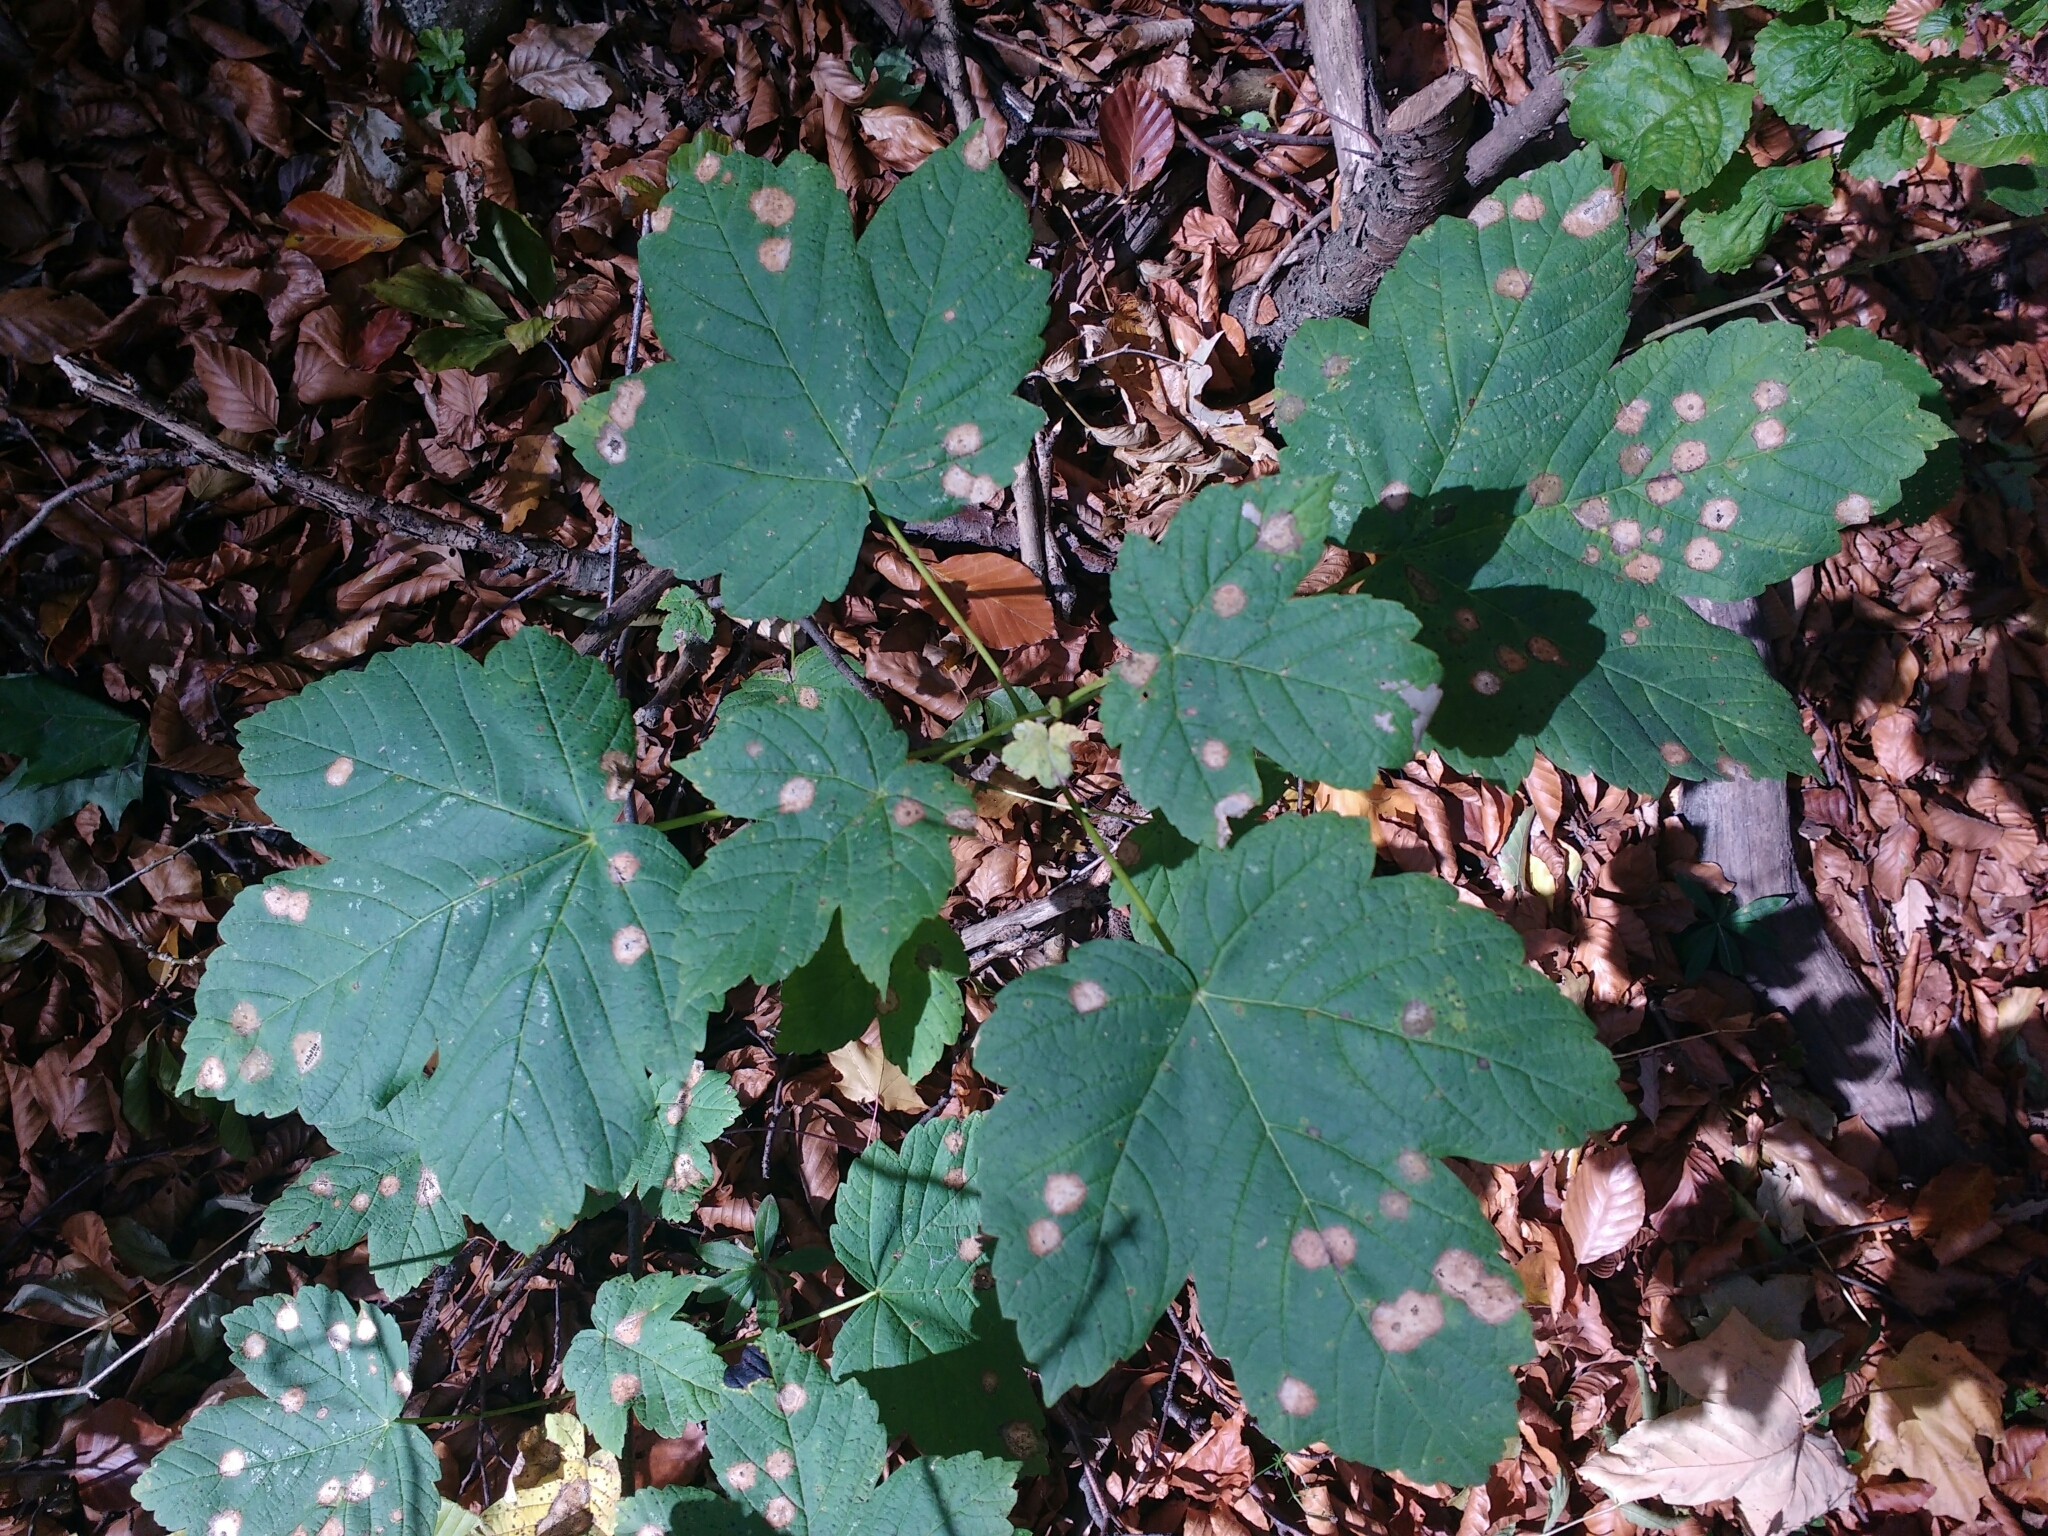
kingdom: Plantae
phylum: Tracheophyta
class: Magnoliopsida
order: Sapindales
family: Sapindaceae
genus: Acer
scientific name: Acer pseudoplatanus
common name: Sycamore
